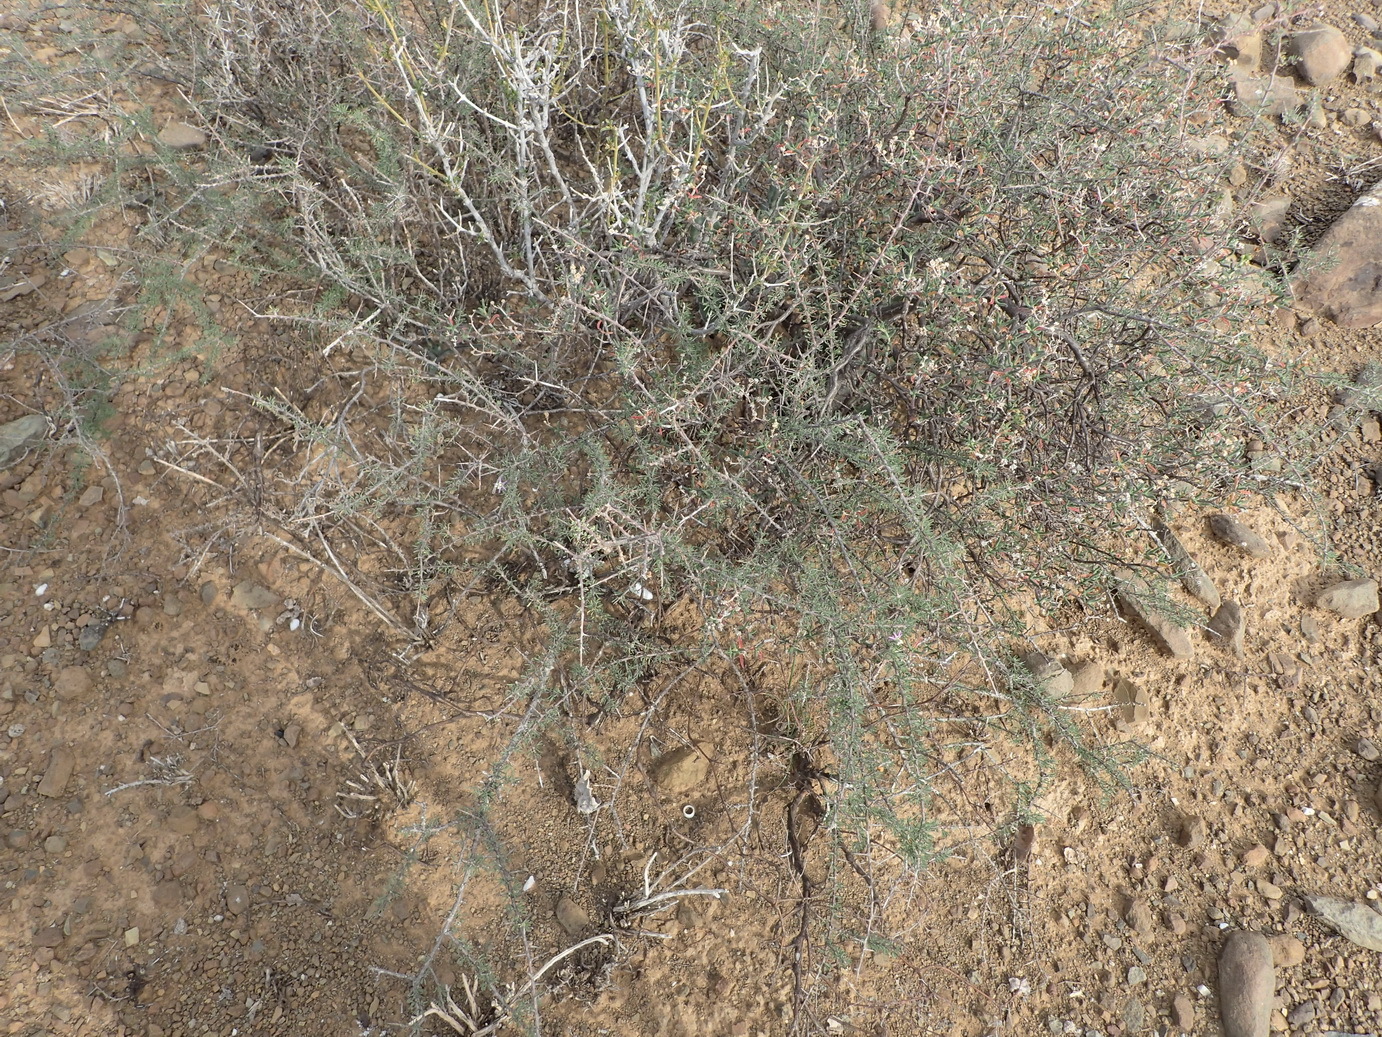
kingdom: Plantae
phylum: Tracheophyta
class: Magnoliopsida
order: Solanales
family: Solanaceae
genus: Lycium
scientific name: Lycium pumilum
